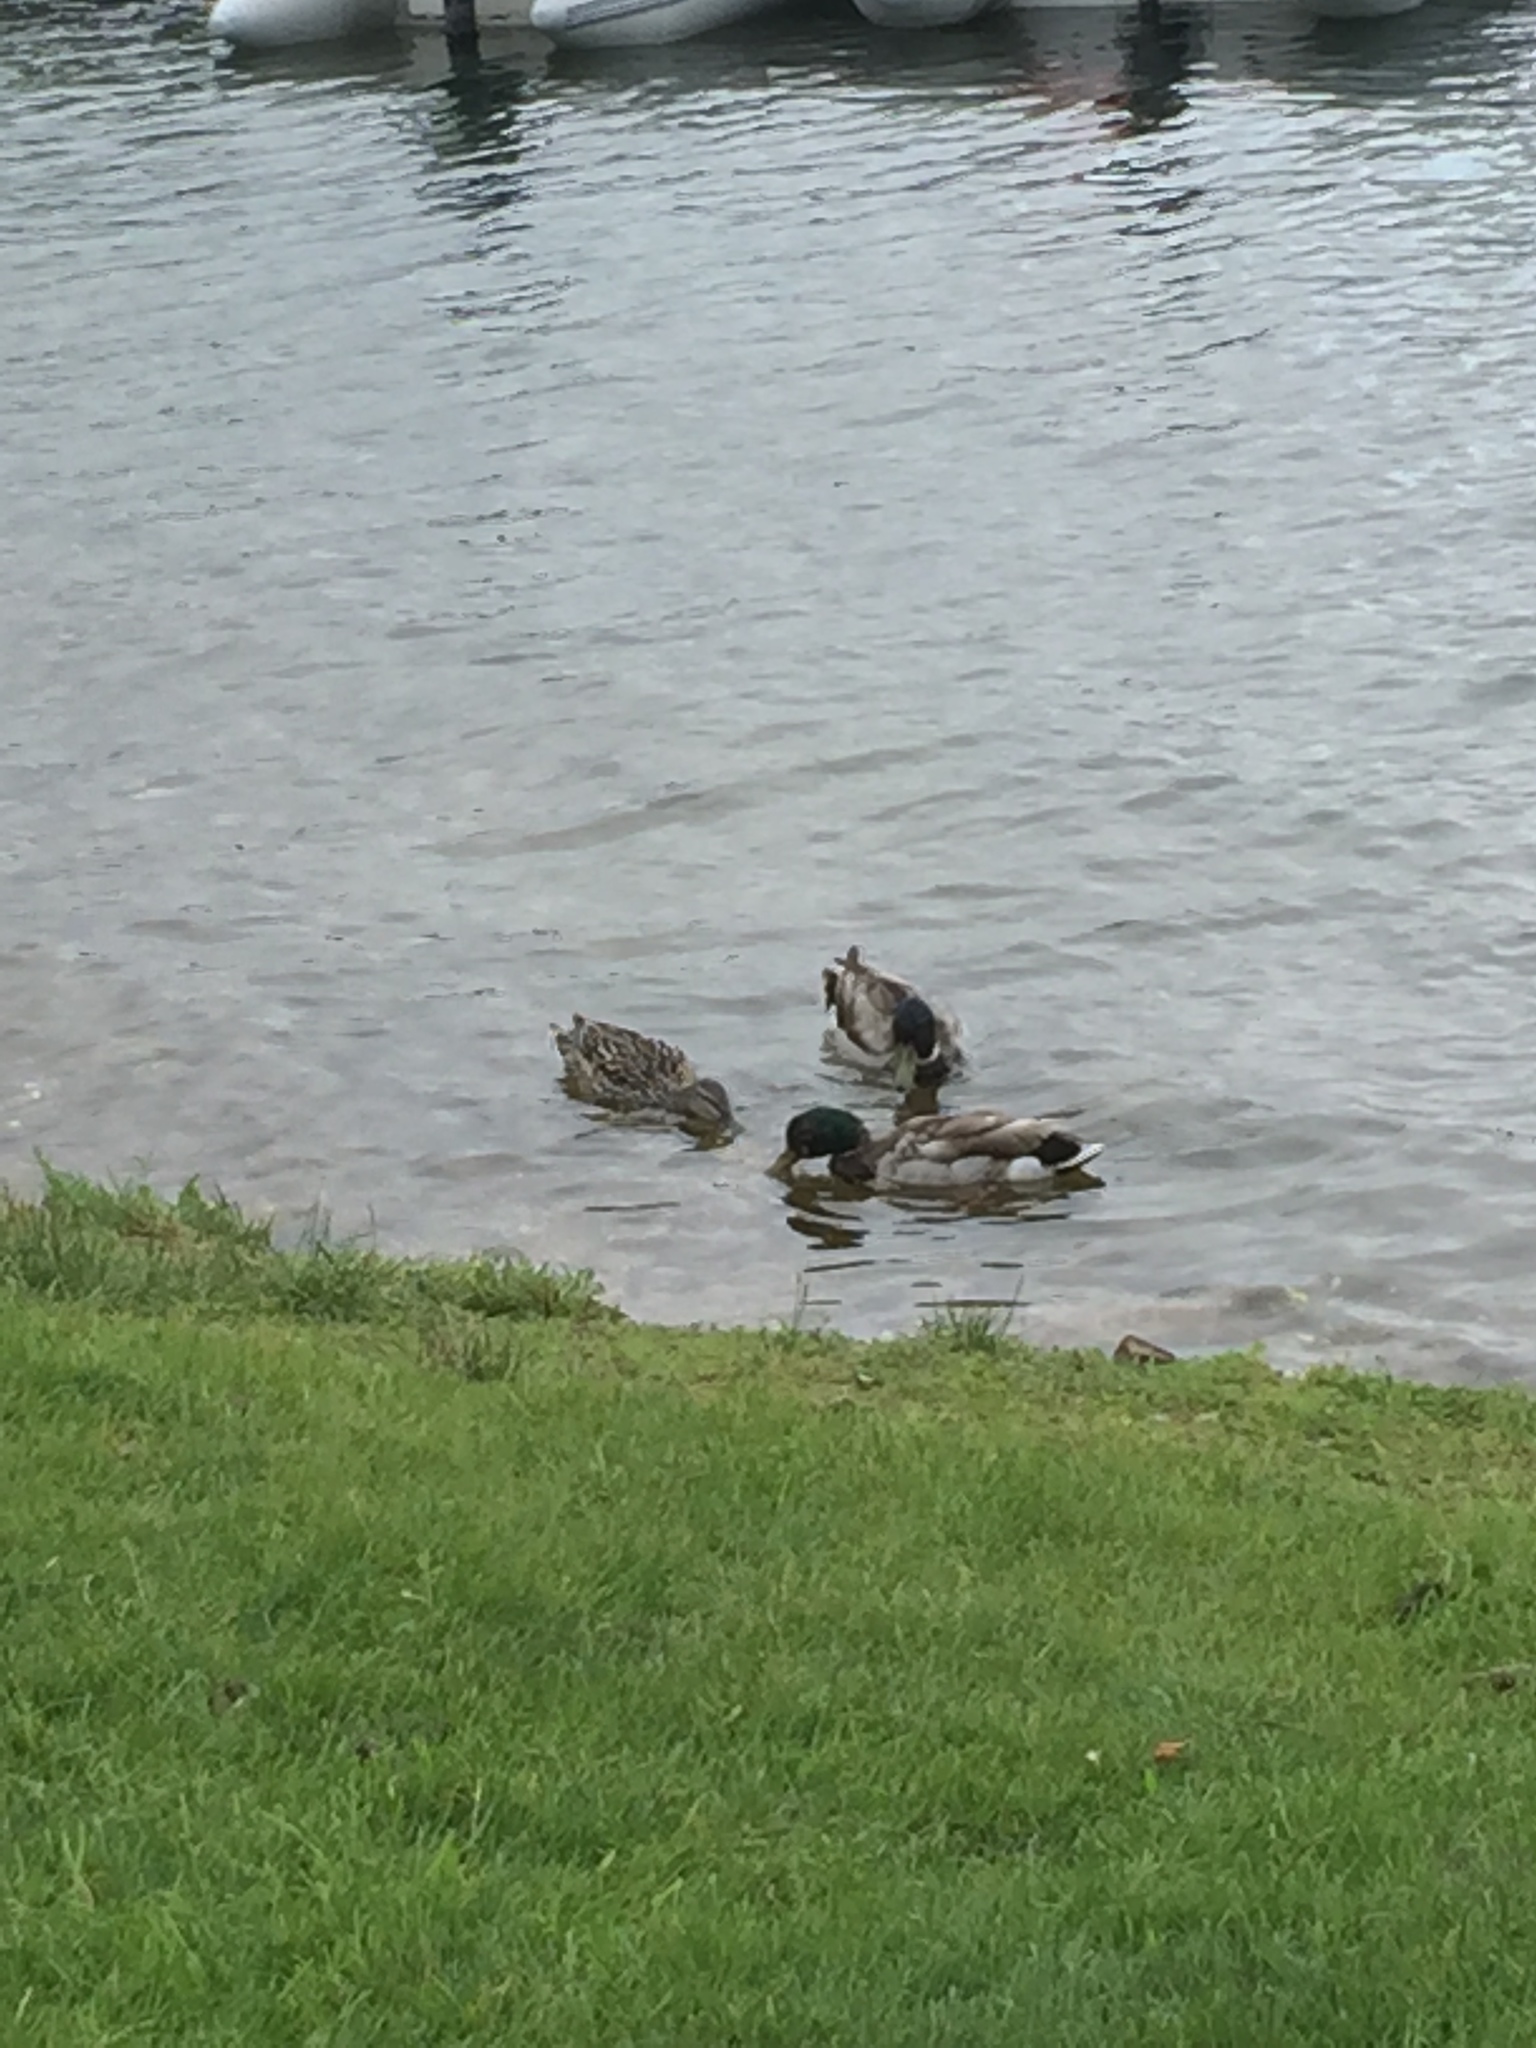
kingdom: Animalia
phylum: Chordata
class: Aves
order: Anseriformes
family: Anatidae
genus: Anas
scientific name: Anas platyrhynchos
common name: Mallard
